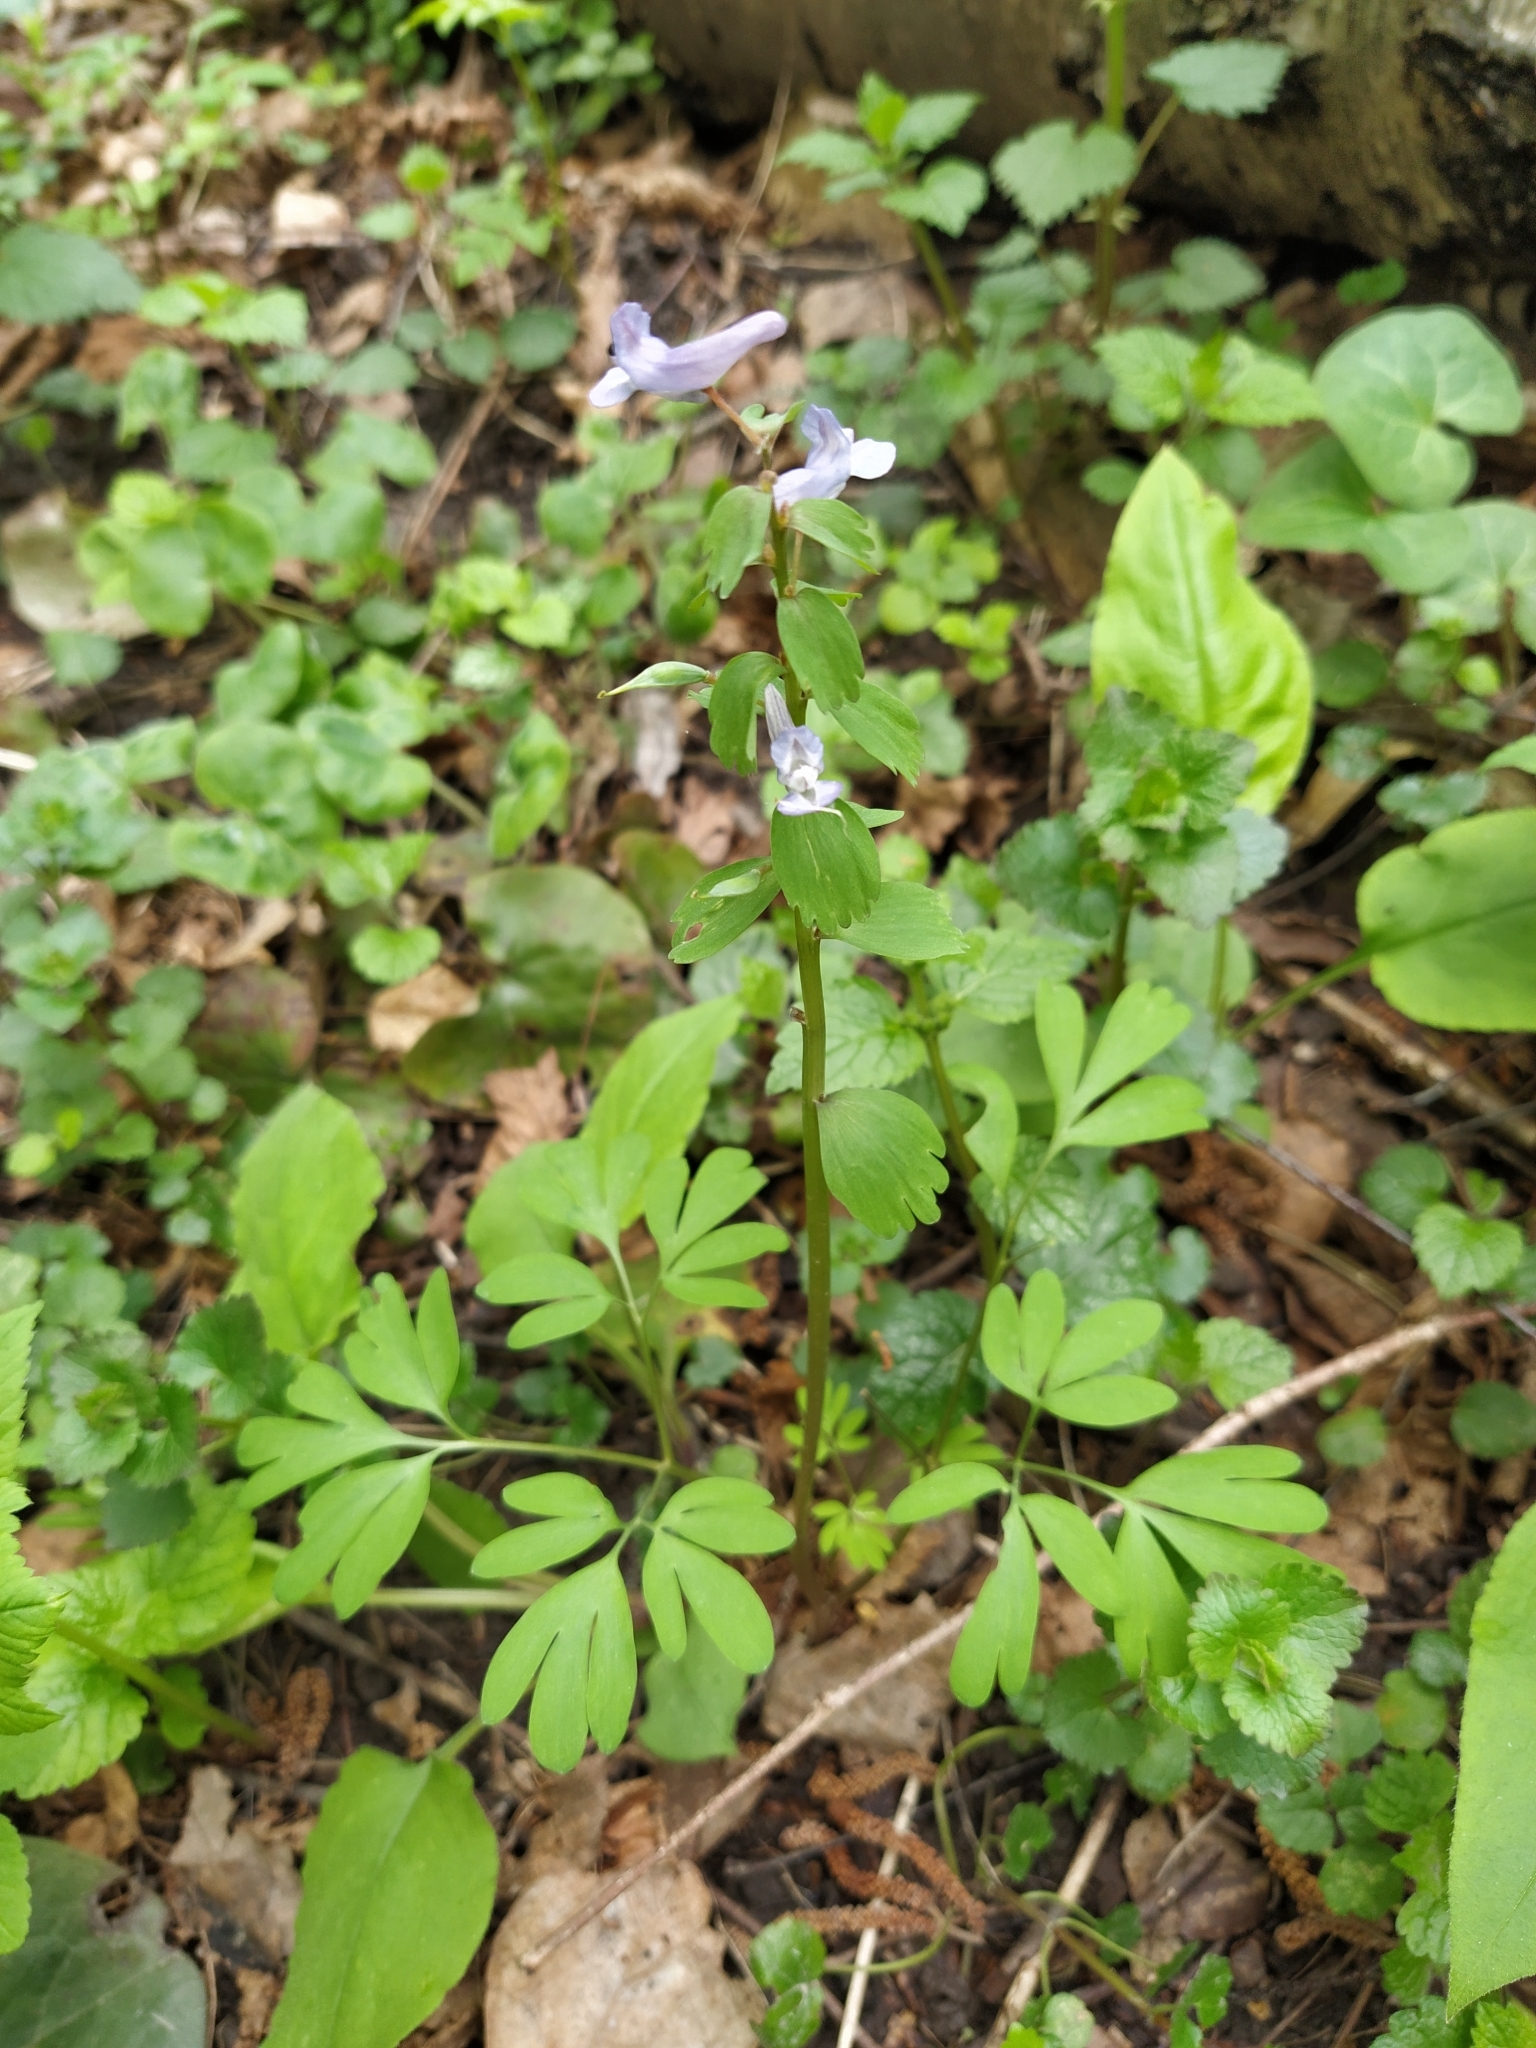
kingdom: Plantae
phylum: Tracheophyta
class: Magnoliopsida
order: Ranunculales
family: Papaveraceae
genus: Corydalis
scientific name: Corydalis solida
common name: Bird-in-a-bush
